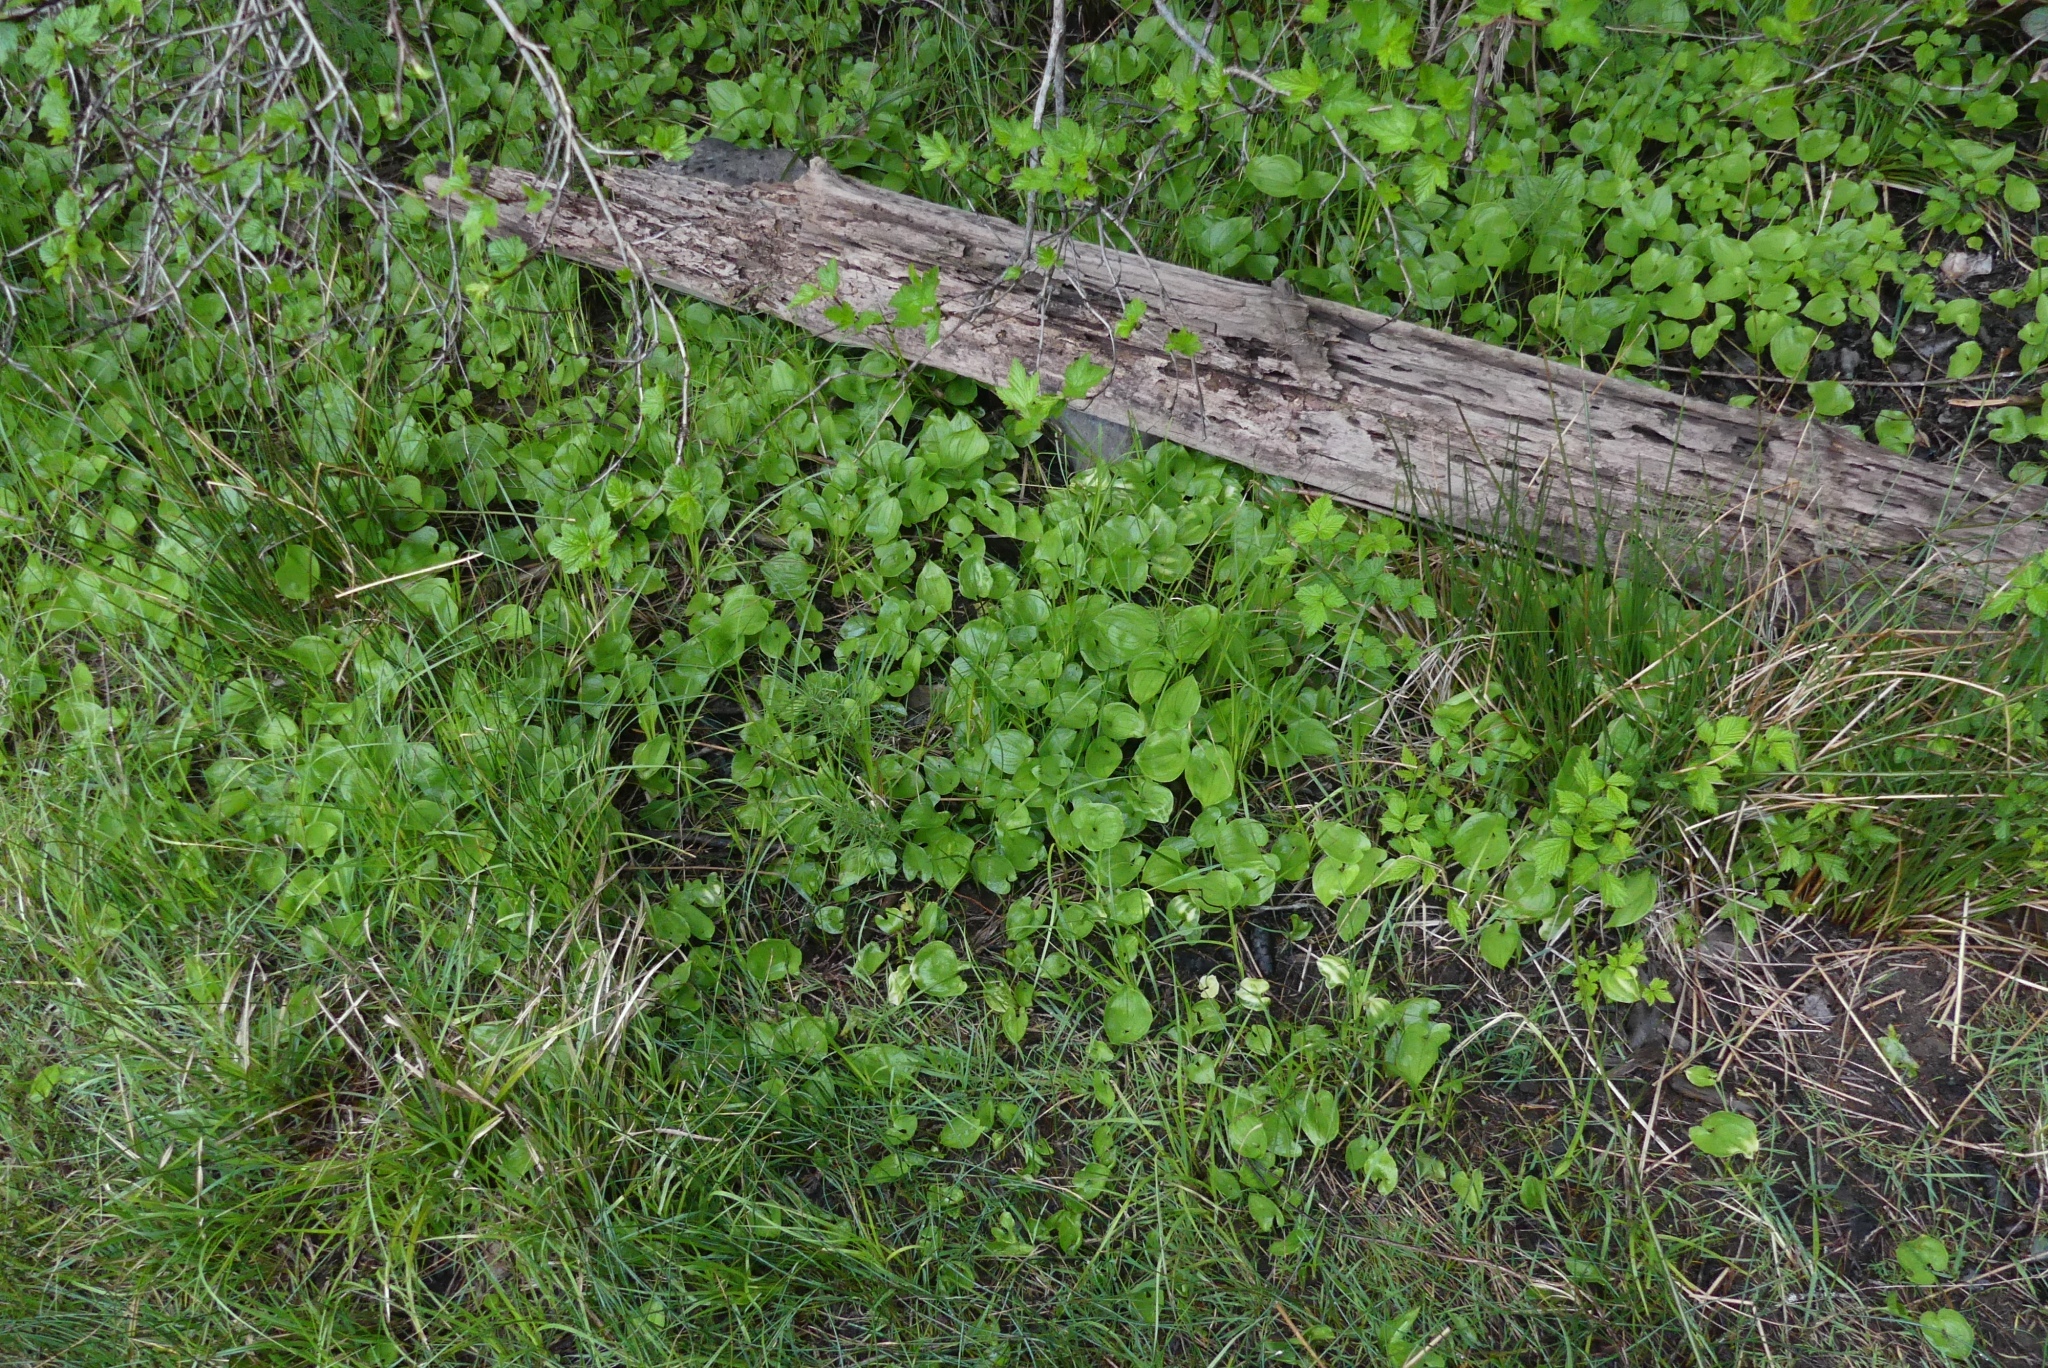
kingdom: Plantae
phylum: Tracheophyta
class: Liliopsida
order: Asparagales
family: Asparagaceae
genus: Maianthemum
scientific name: Maianthemum dilatatum
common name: False lily-of-the-valley
